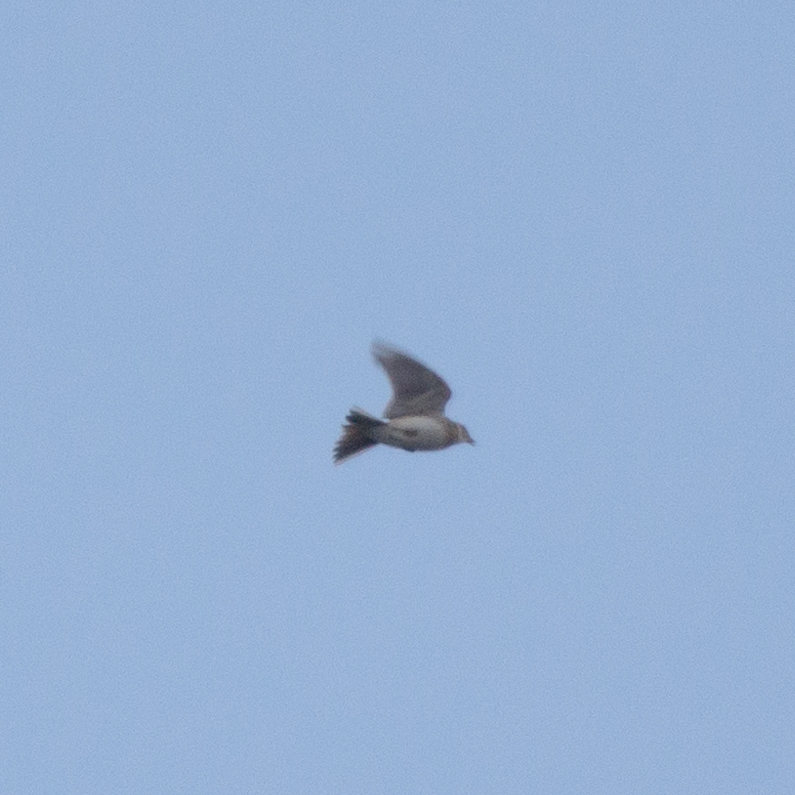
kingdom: Animalia
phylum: Chordata
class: Aves
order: Passeriformes
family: Alaudidae
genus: Alauda
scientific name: Alauda arvensis
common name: Eurasian skylark
